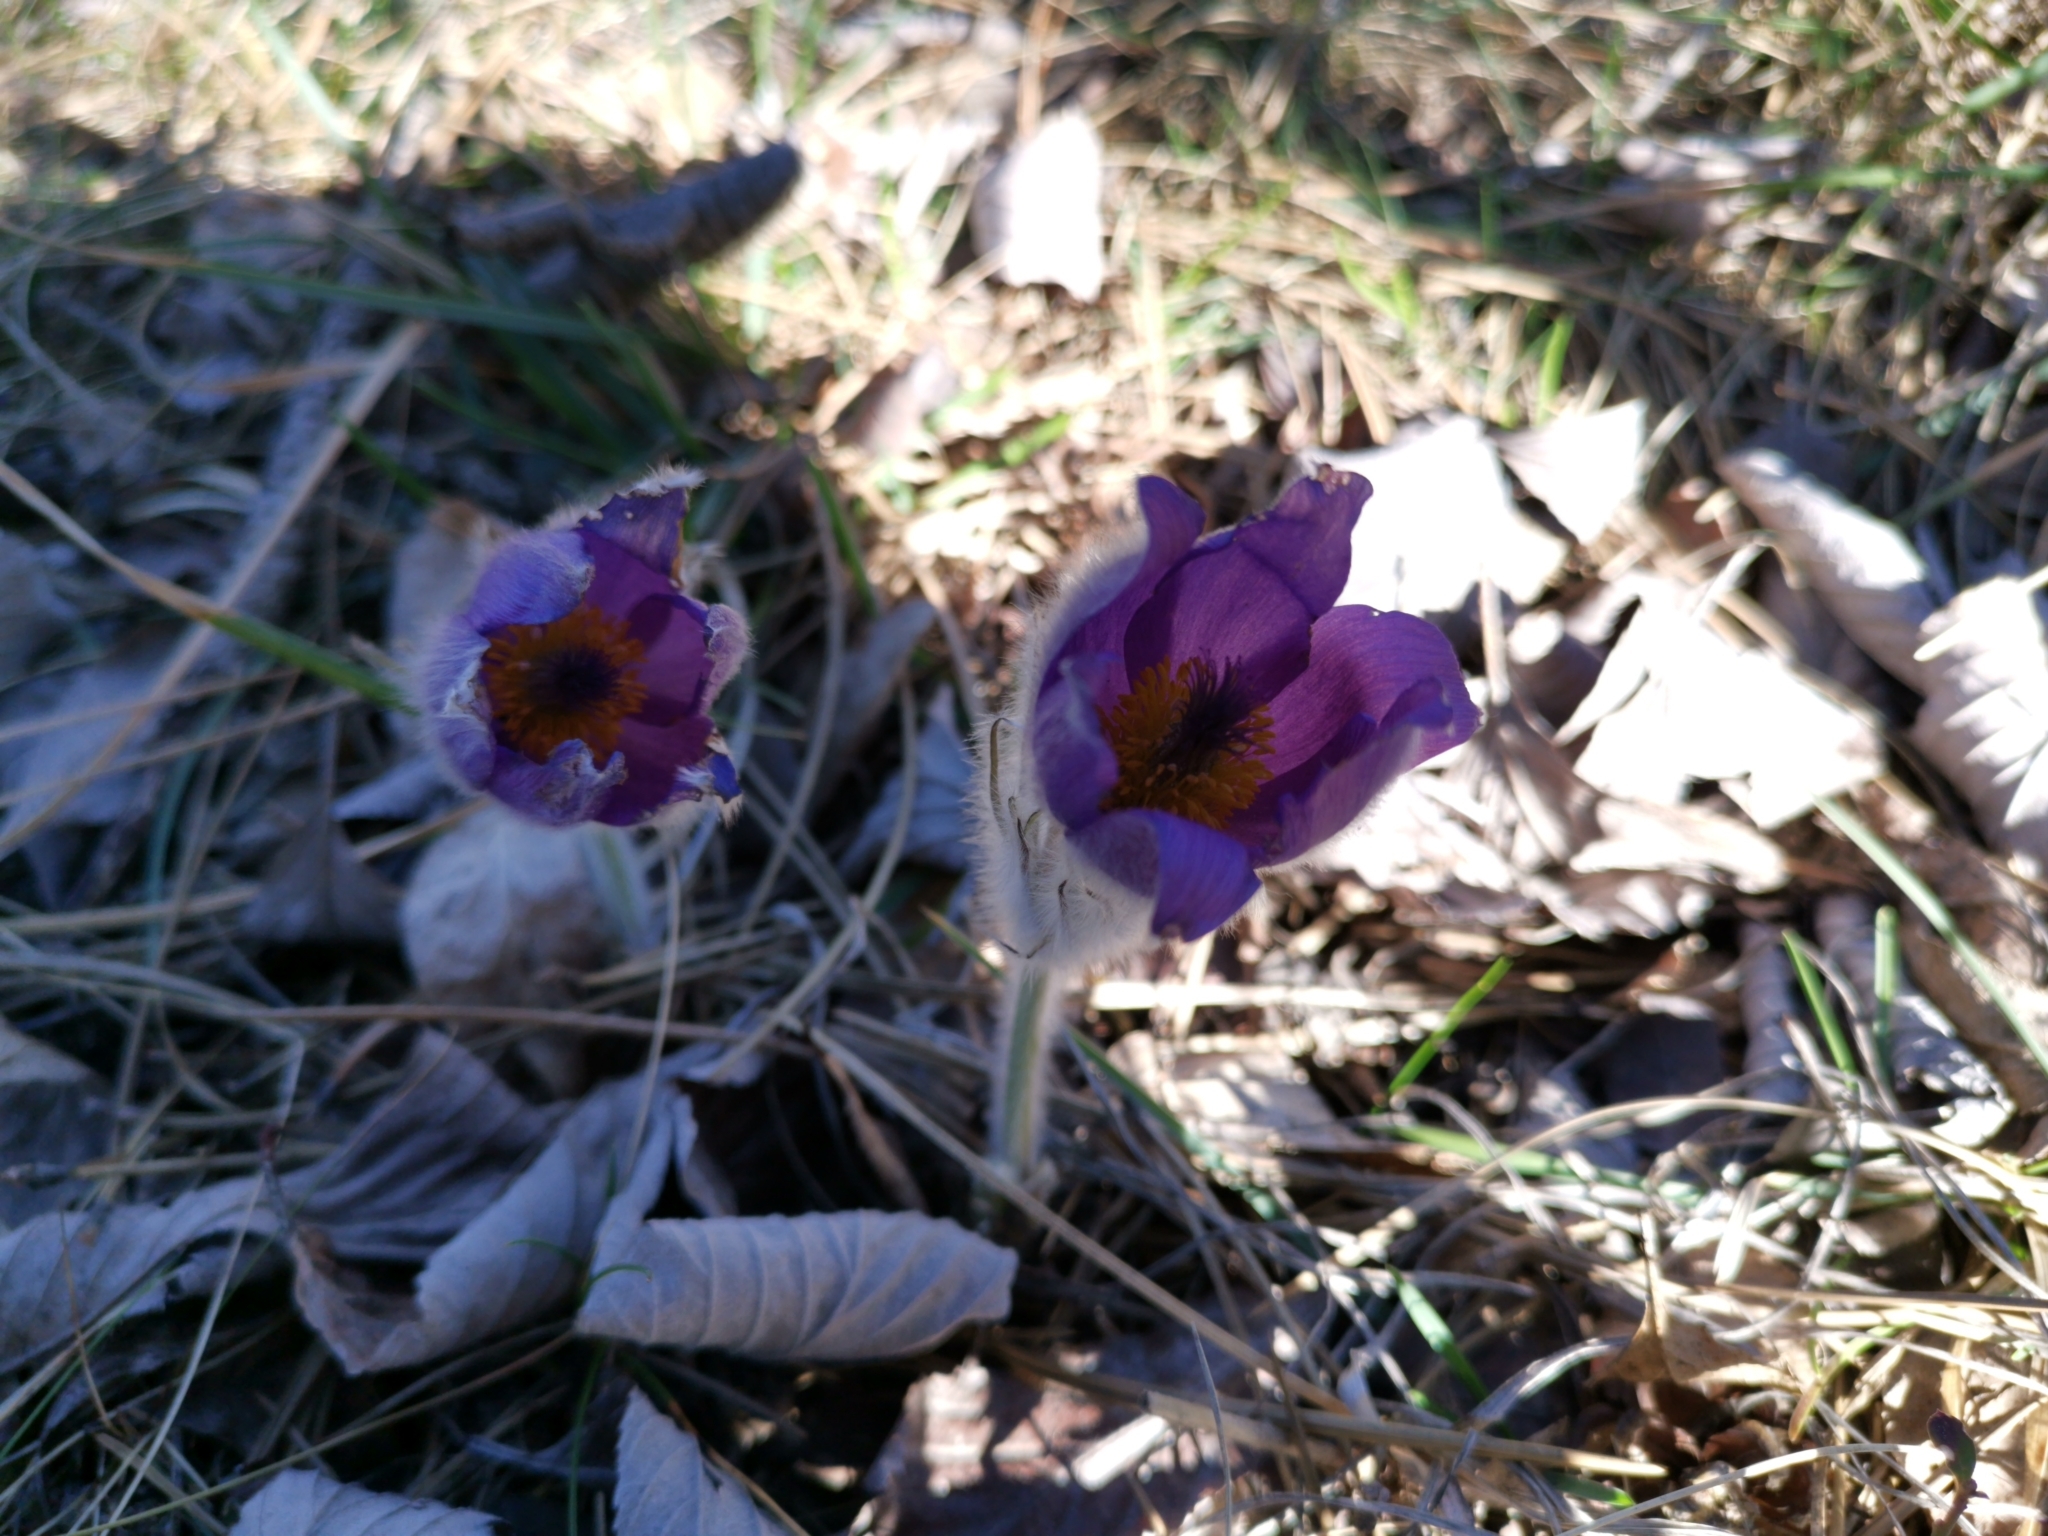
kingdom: Plantae
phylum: Tracheophyta
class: Magnoliopsida
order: Ranunculales
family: Ranunculaceae
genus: Pulsatilla
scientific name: Pulsatilla grandis
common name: Greater pasque flower
